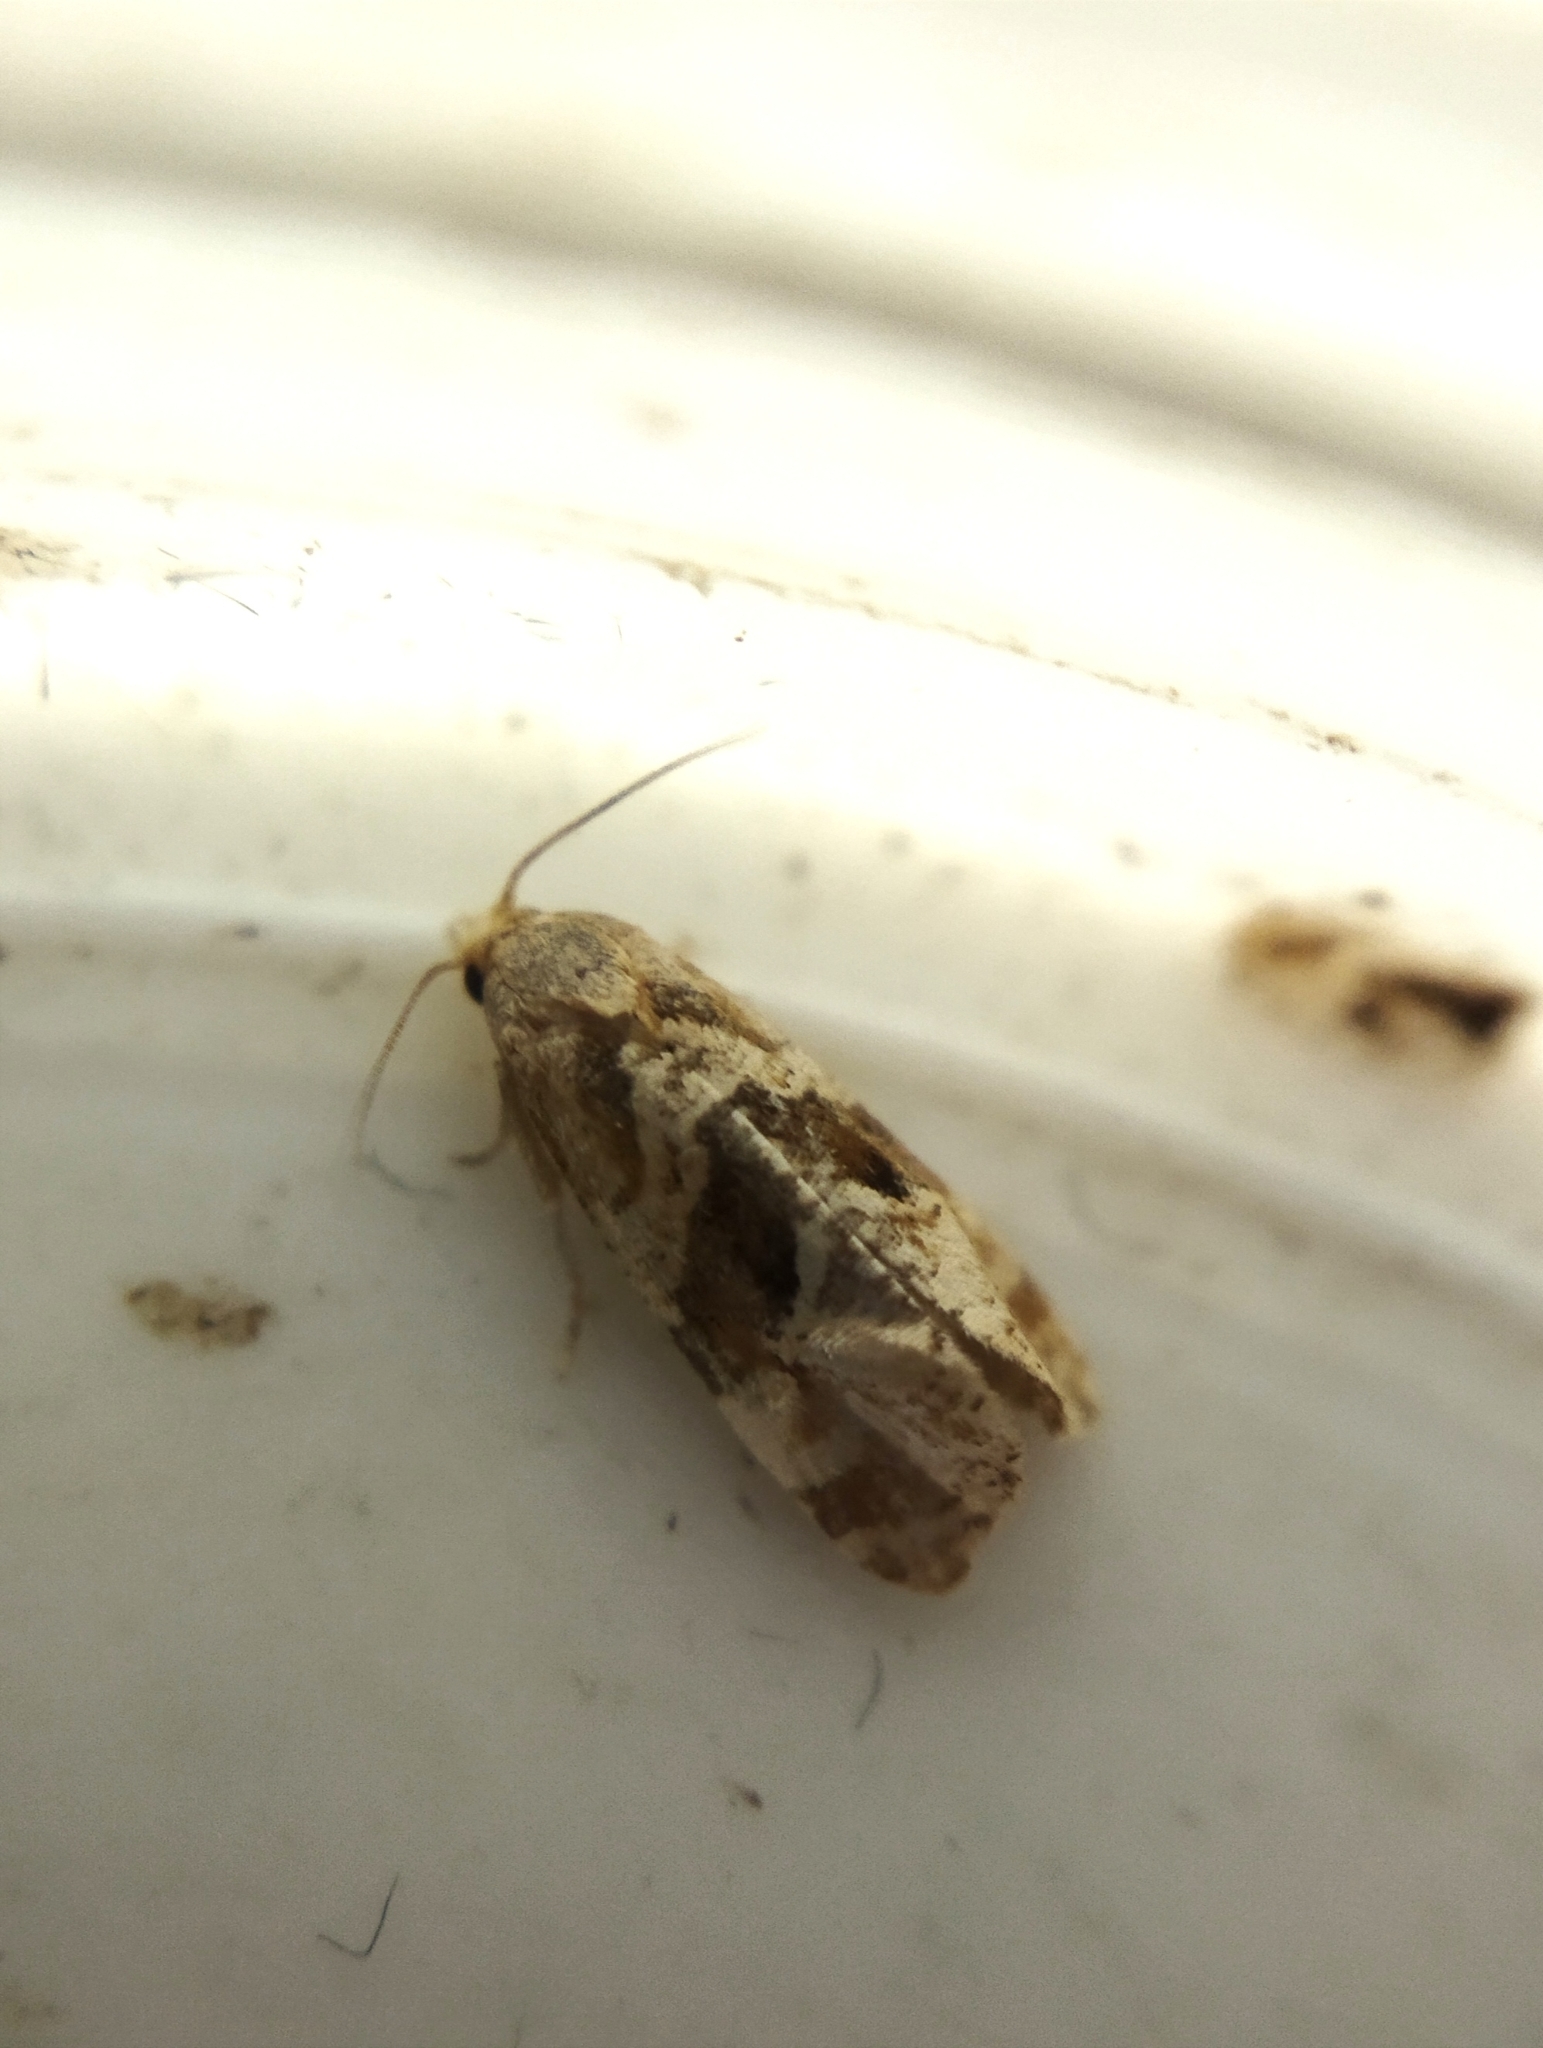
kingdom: Animalia
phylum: Arthropoda
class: Insecta
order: Lepidoptera
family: Tortricidae
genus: Gynnidomorpha
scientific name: Gynnidomorpha alismana
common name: Water-plantain conch
